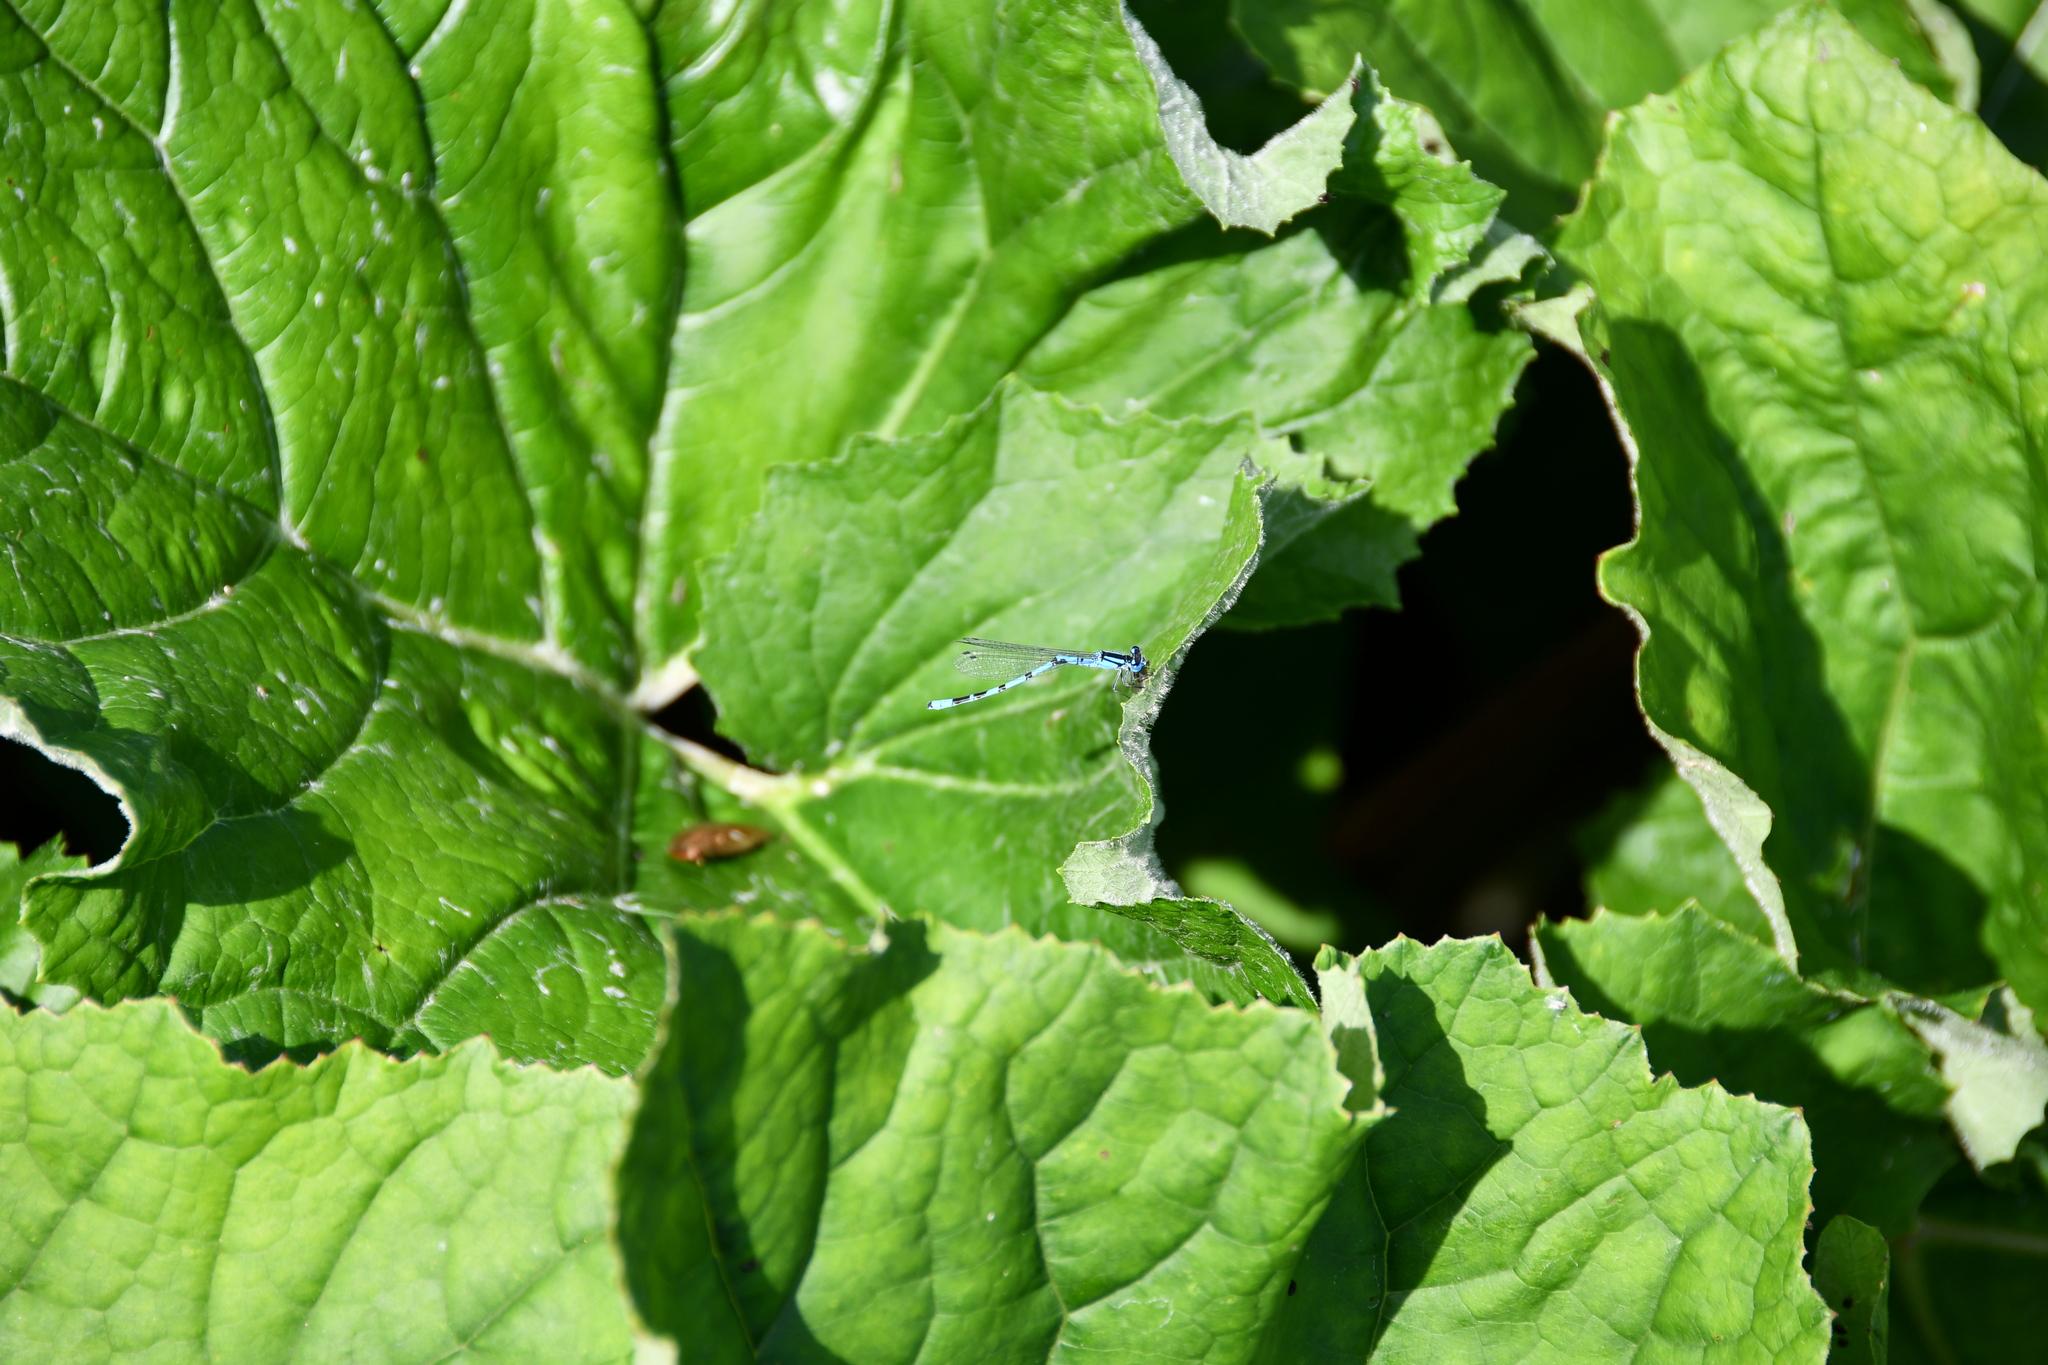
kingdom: Animalia
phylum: Arthropoda
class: Insecta
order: Odonata
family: Coenagrionidae
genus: Enallagma
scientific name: Enallagma cyathigerum
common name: Common blue damselfly
